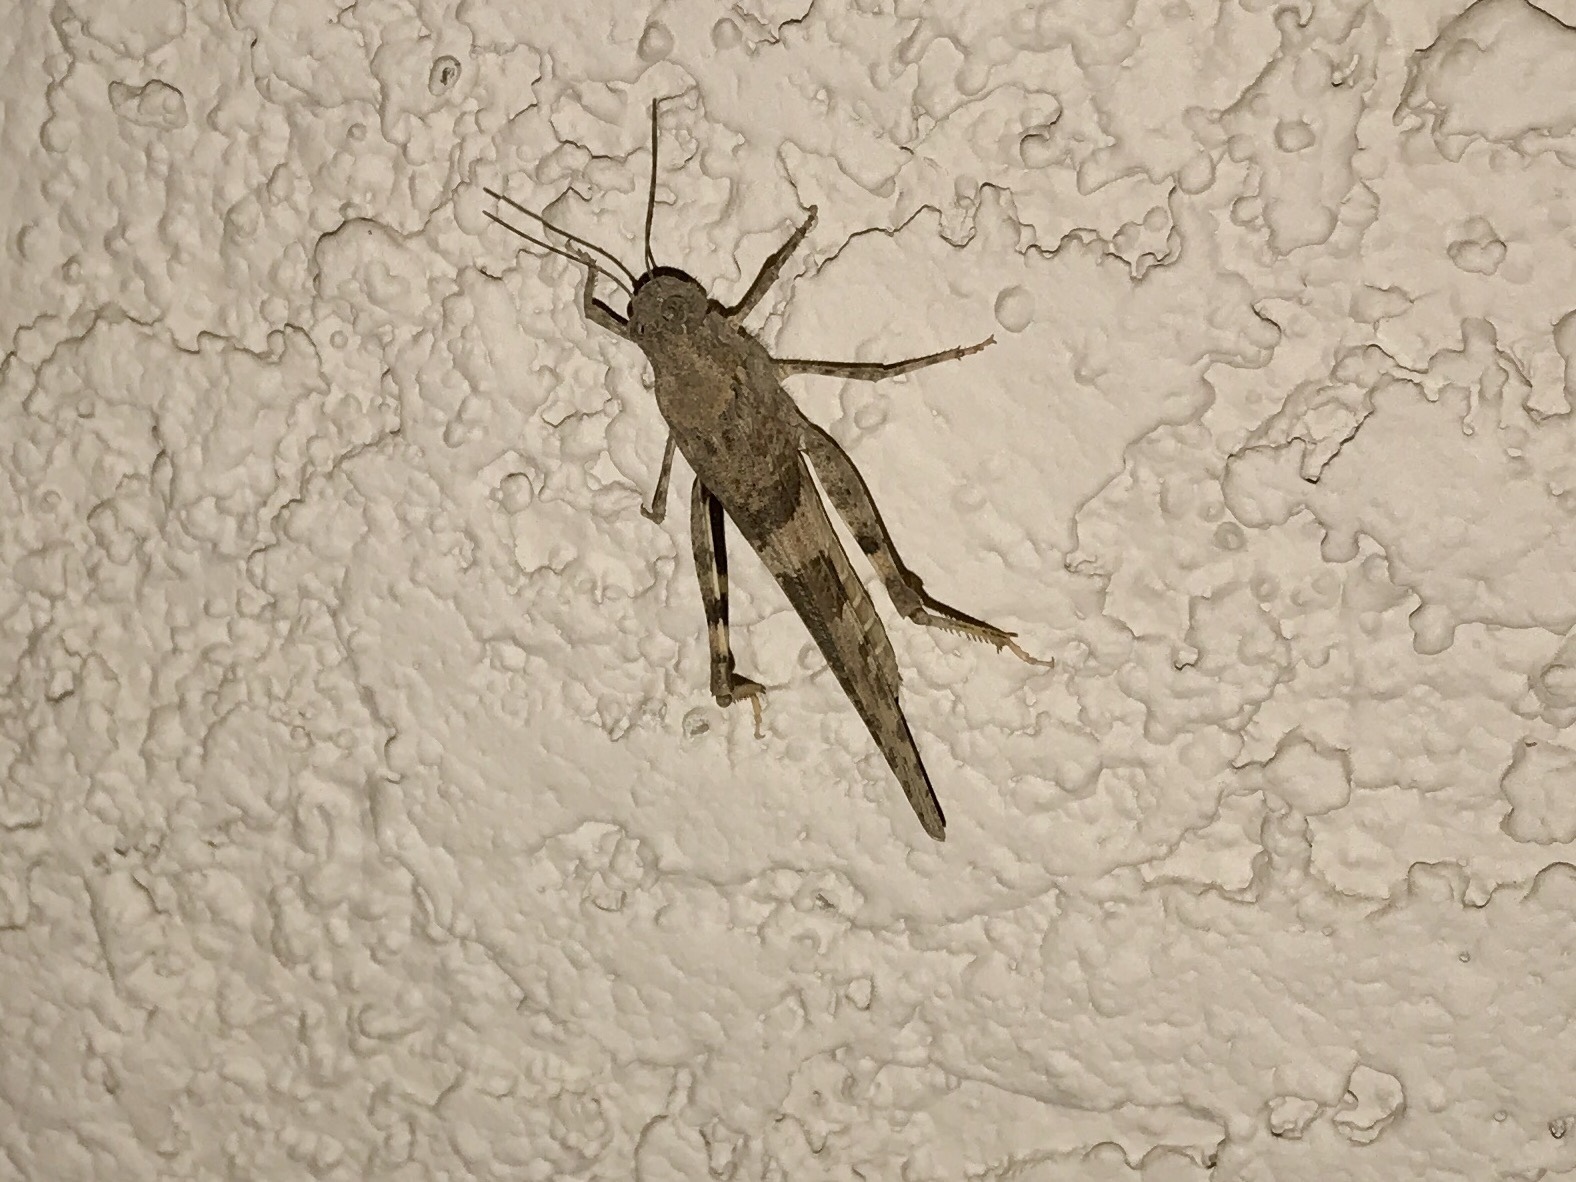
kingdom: Animalia
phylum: Arthropoda
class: Insecta
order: Orthoptera
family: Acrididae
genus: Trimerotropis
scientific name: Trimerotropis pallidipennis
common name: Pallid-winged grasshopper
